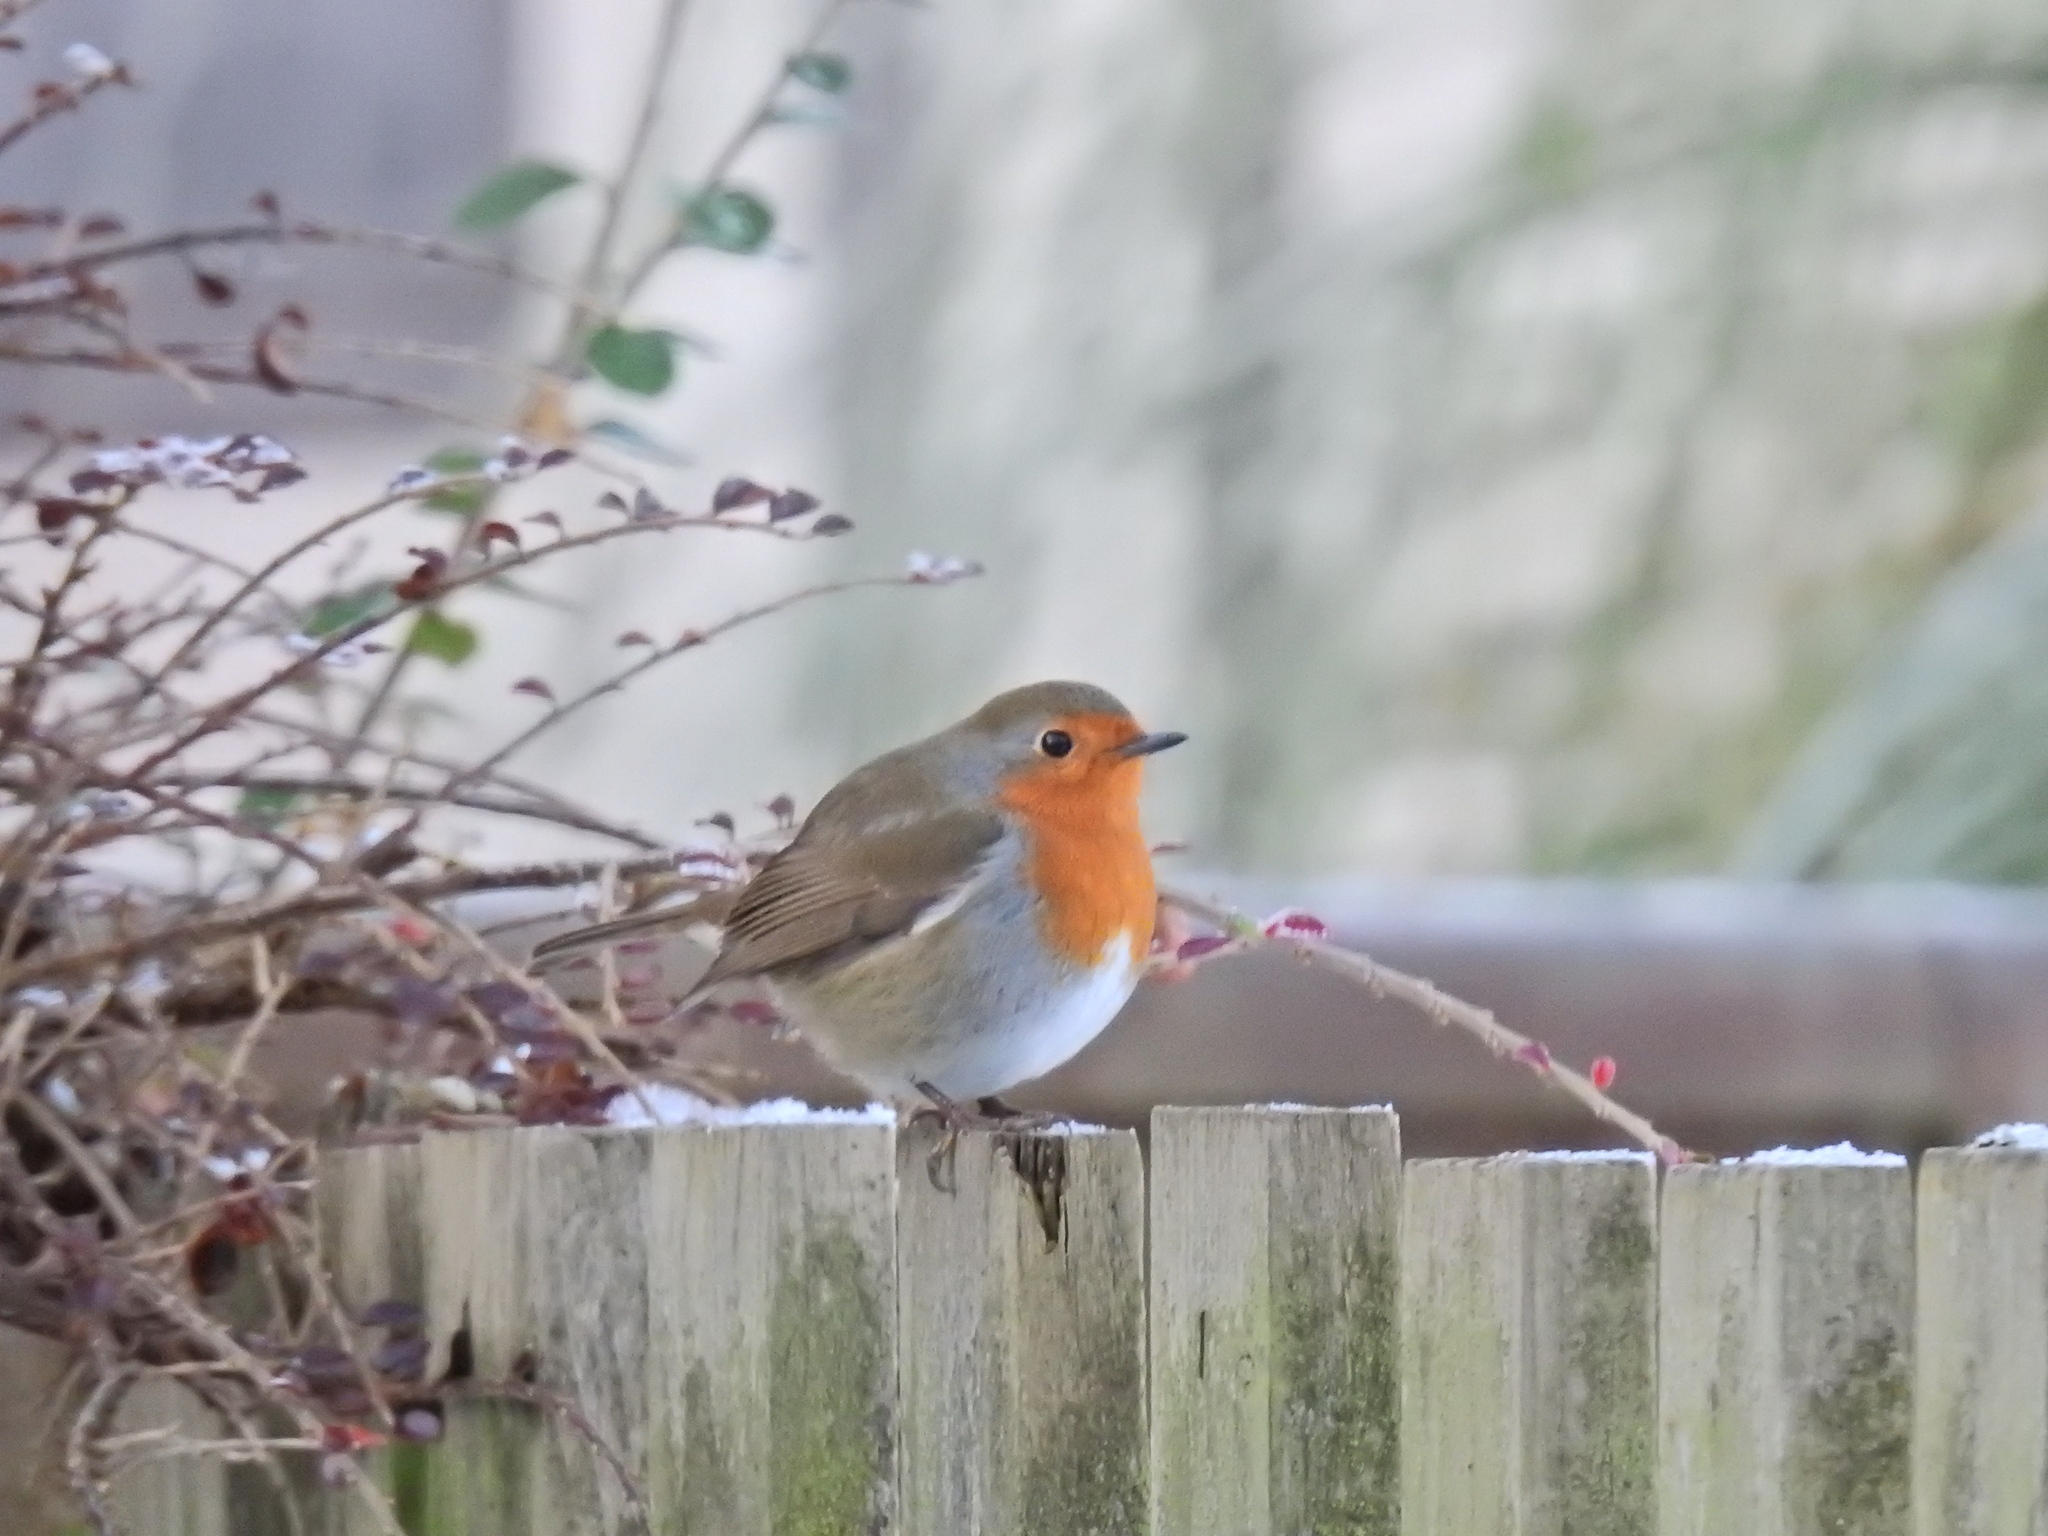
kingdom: Animalia
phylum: Chordata
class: Aves
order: Passeriformes
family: Muscicapidae
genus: Erithacus
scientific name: Erithacus rubecula
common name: European robin
